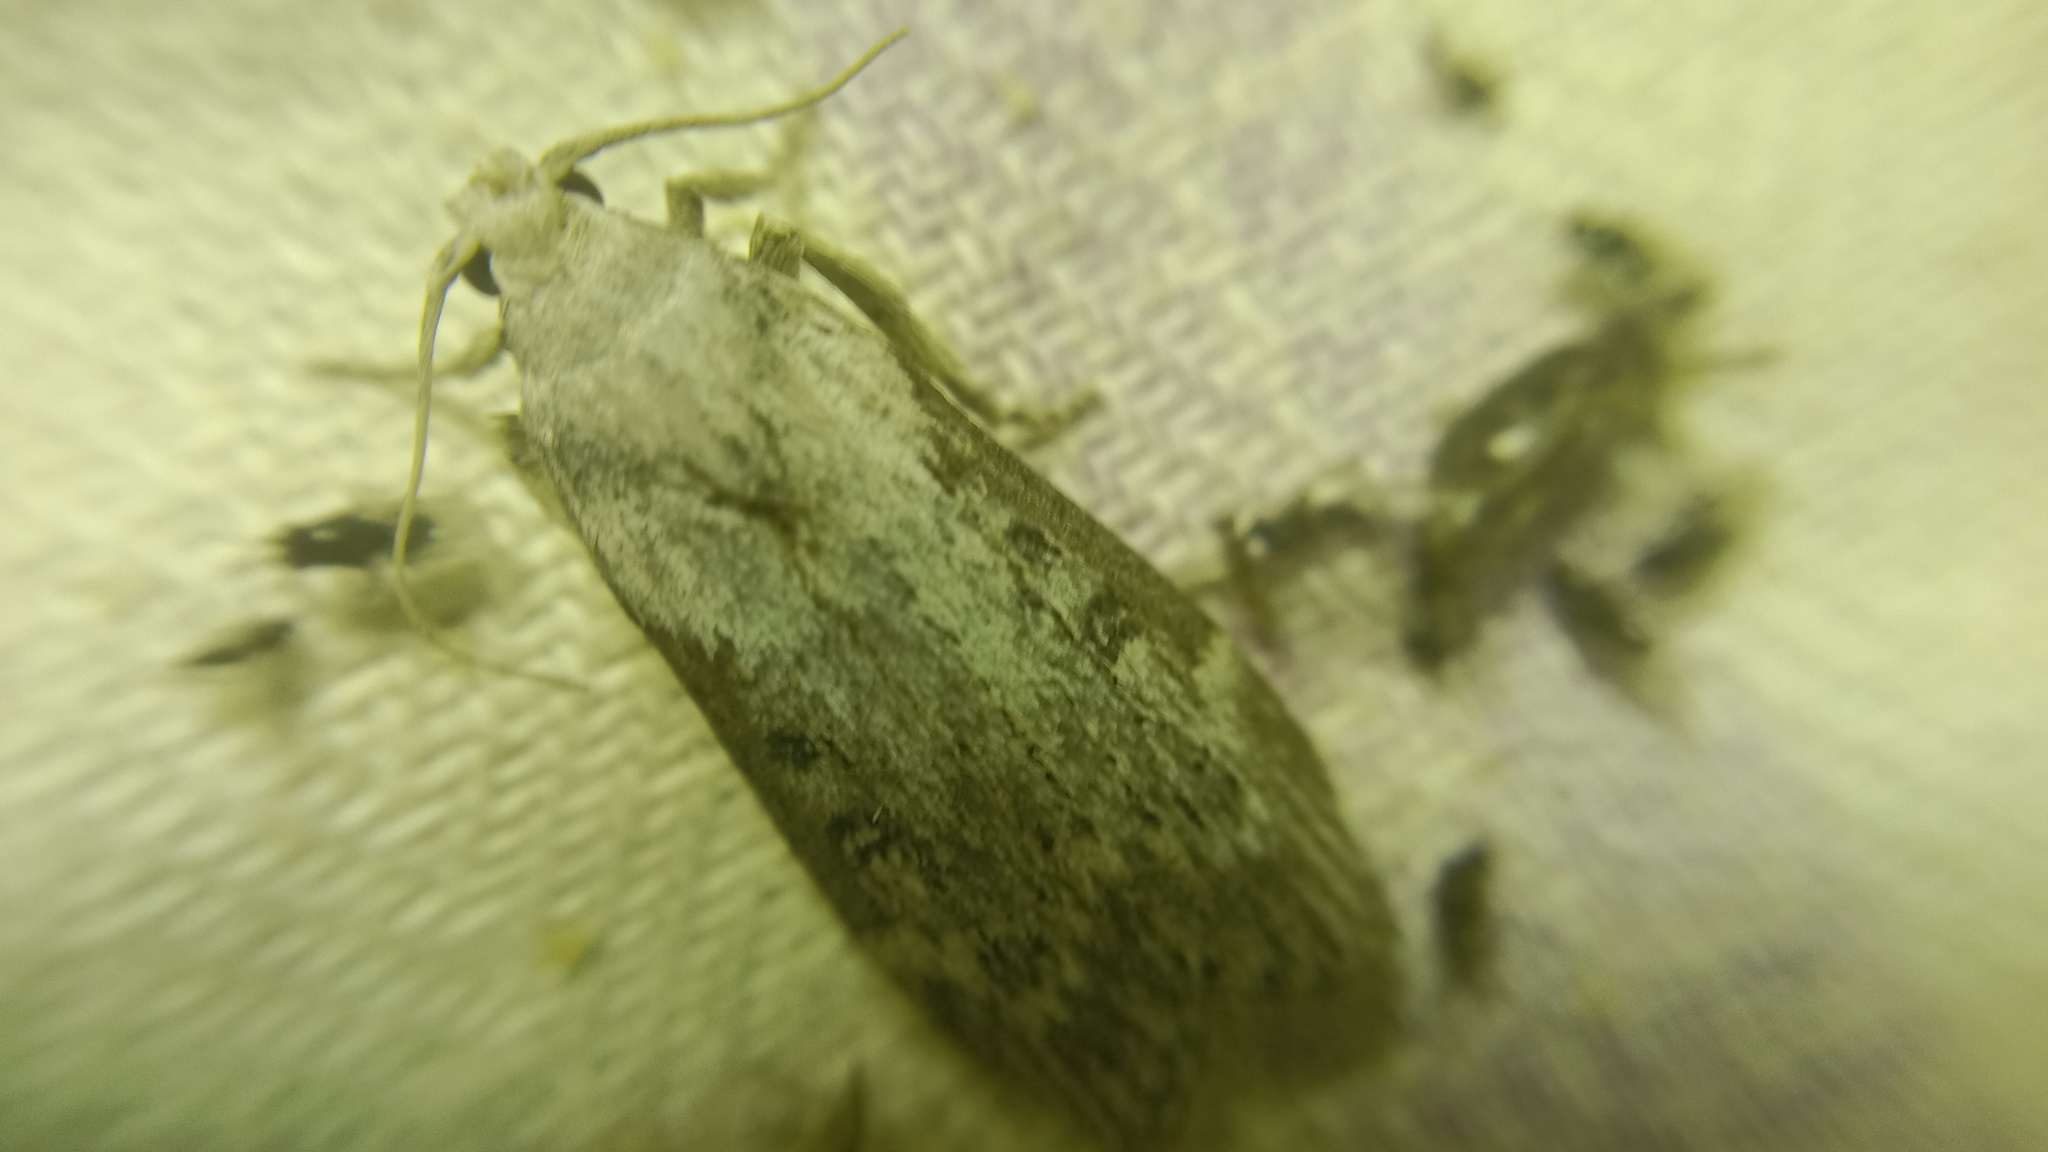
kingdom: Animalia
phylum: Arthropoda
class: Insecta
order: Lepidoptera
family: Pyralidae
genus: Lamoria
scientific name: Lamoria anella
